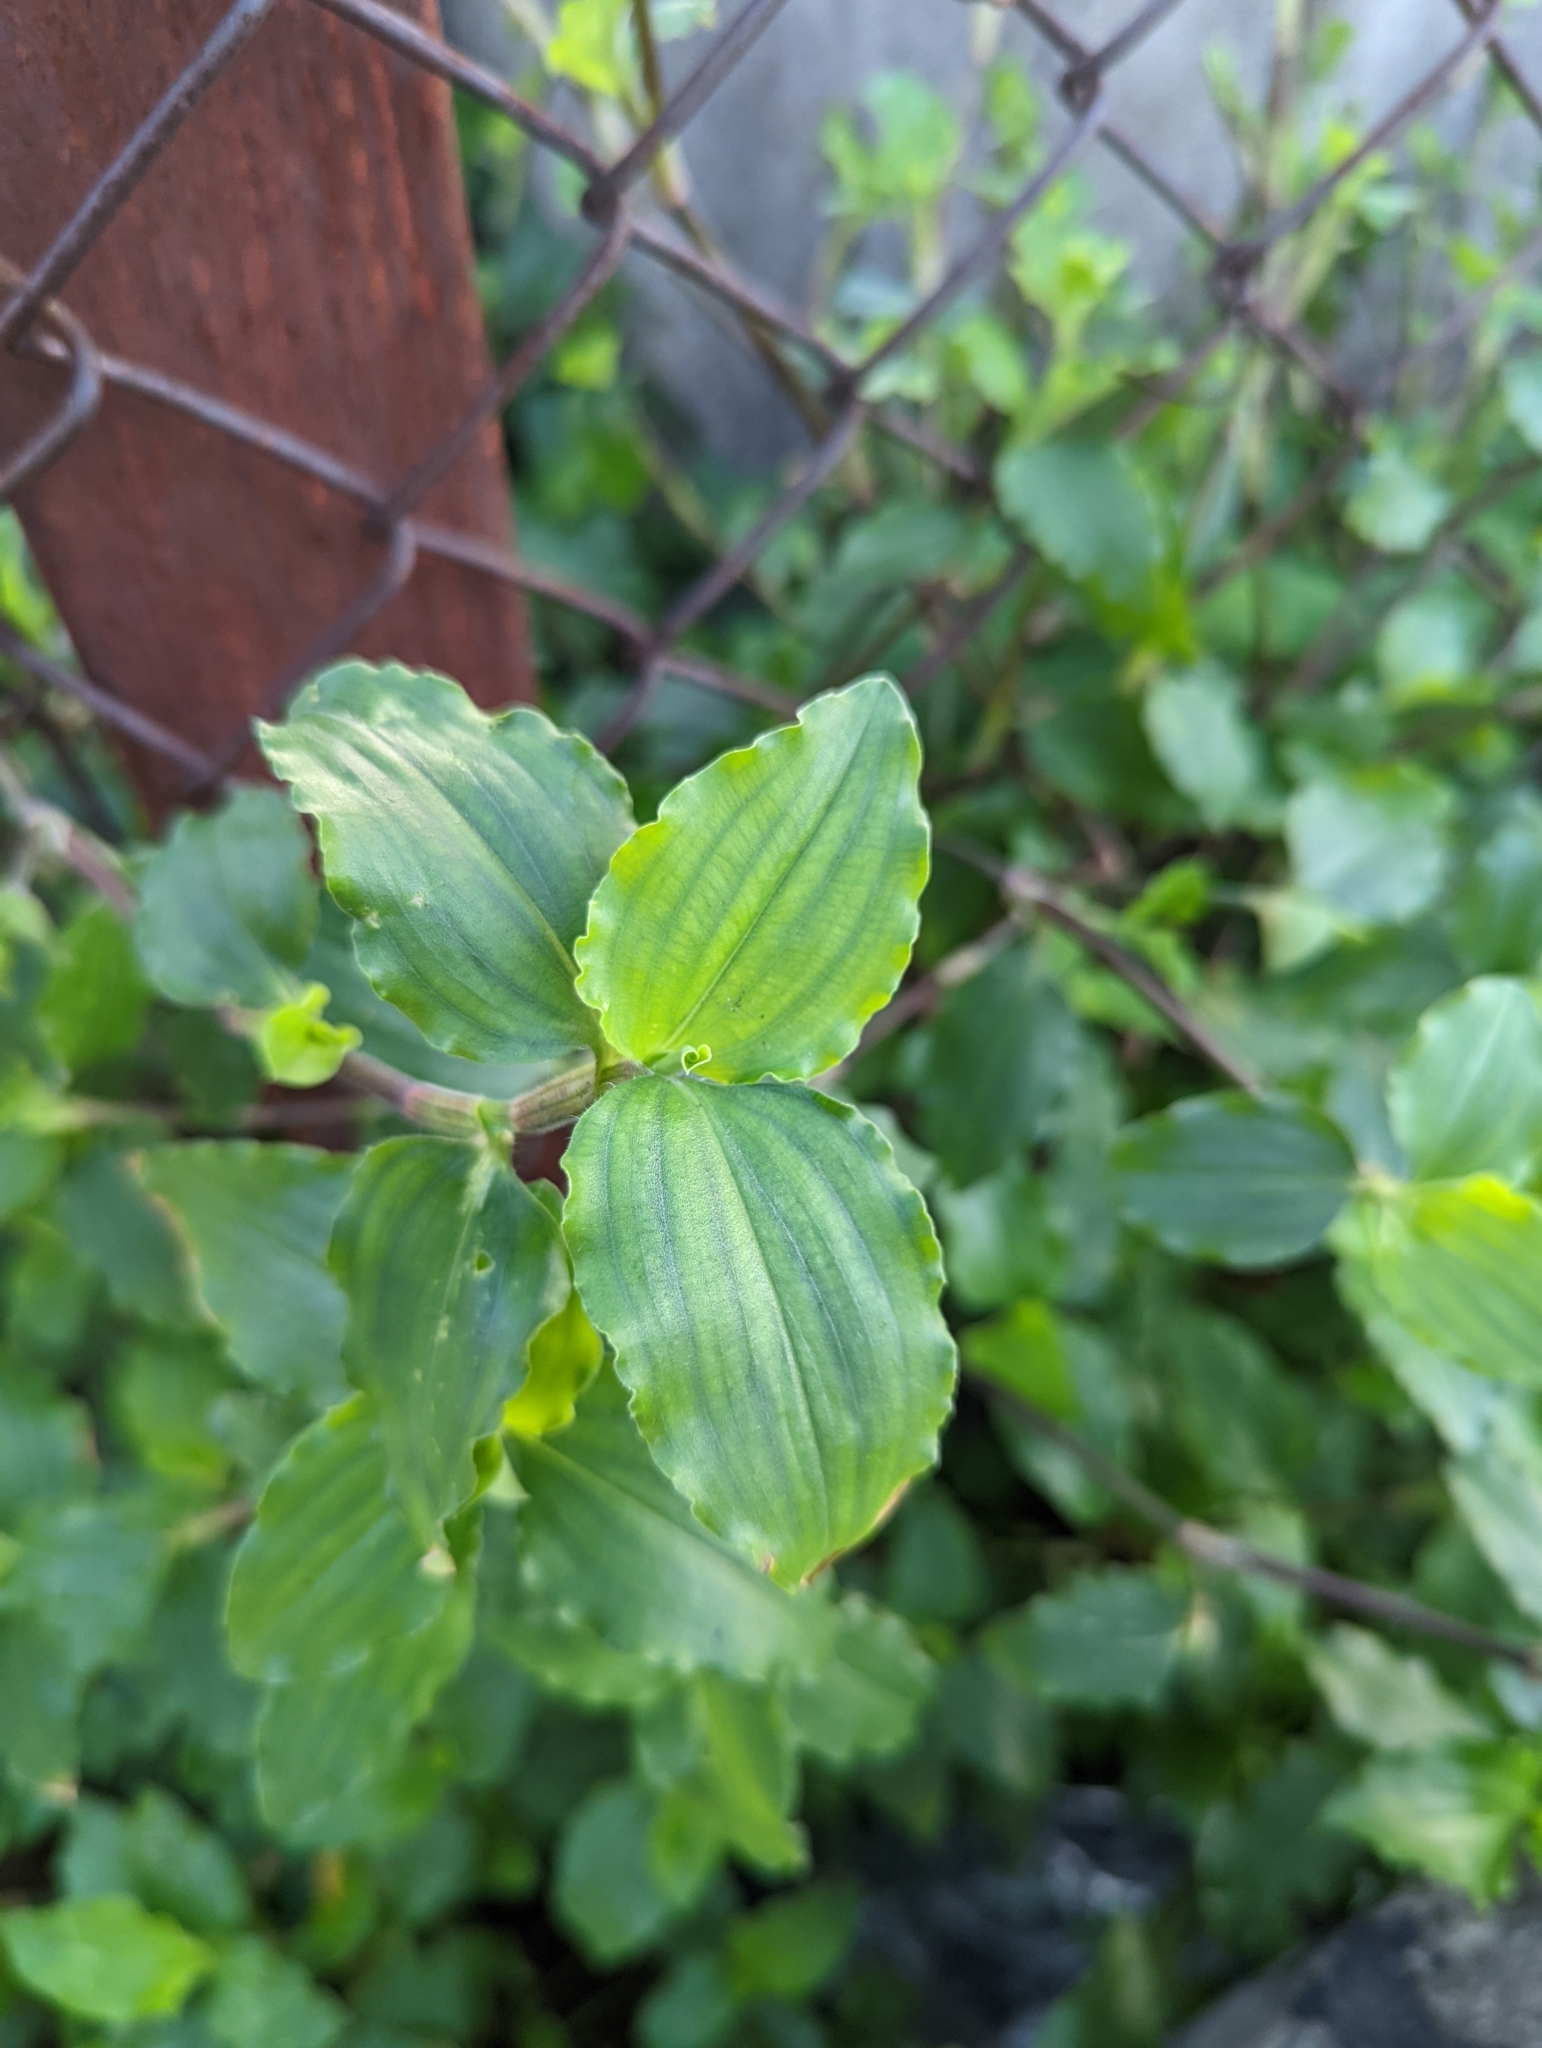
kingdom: Plantae
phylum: Tracheophyta
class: Liliopsida
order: Commelinales
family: Commelinaceae
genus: Commelina
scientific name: Commelina benghalensis
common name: Jio
